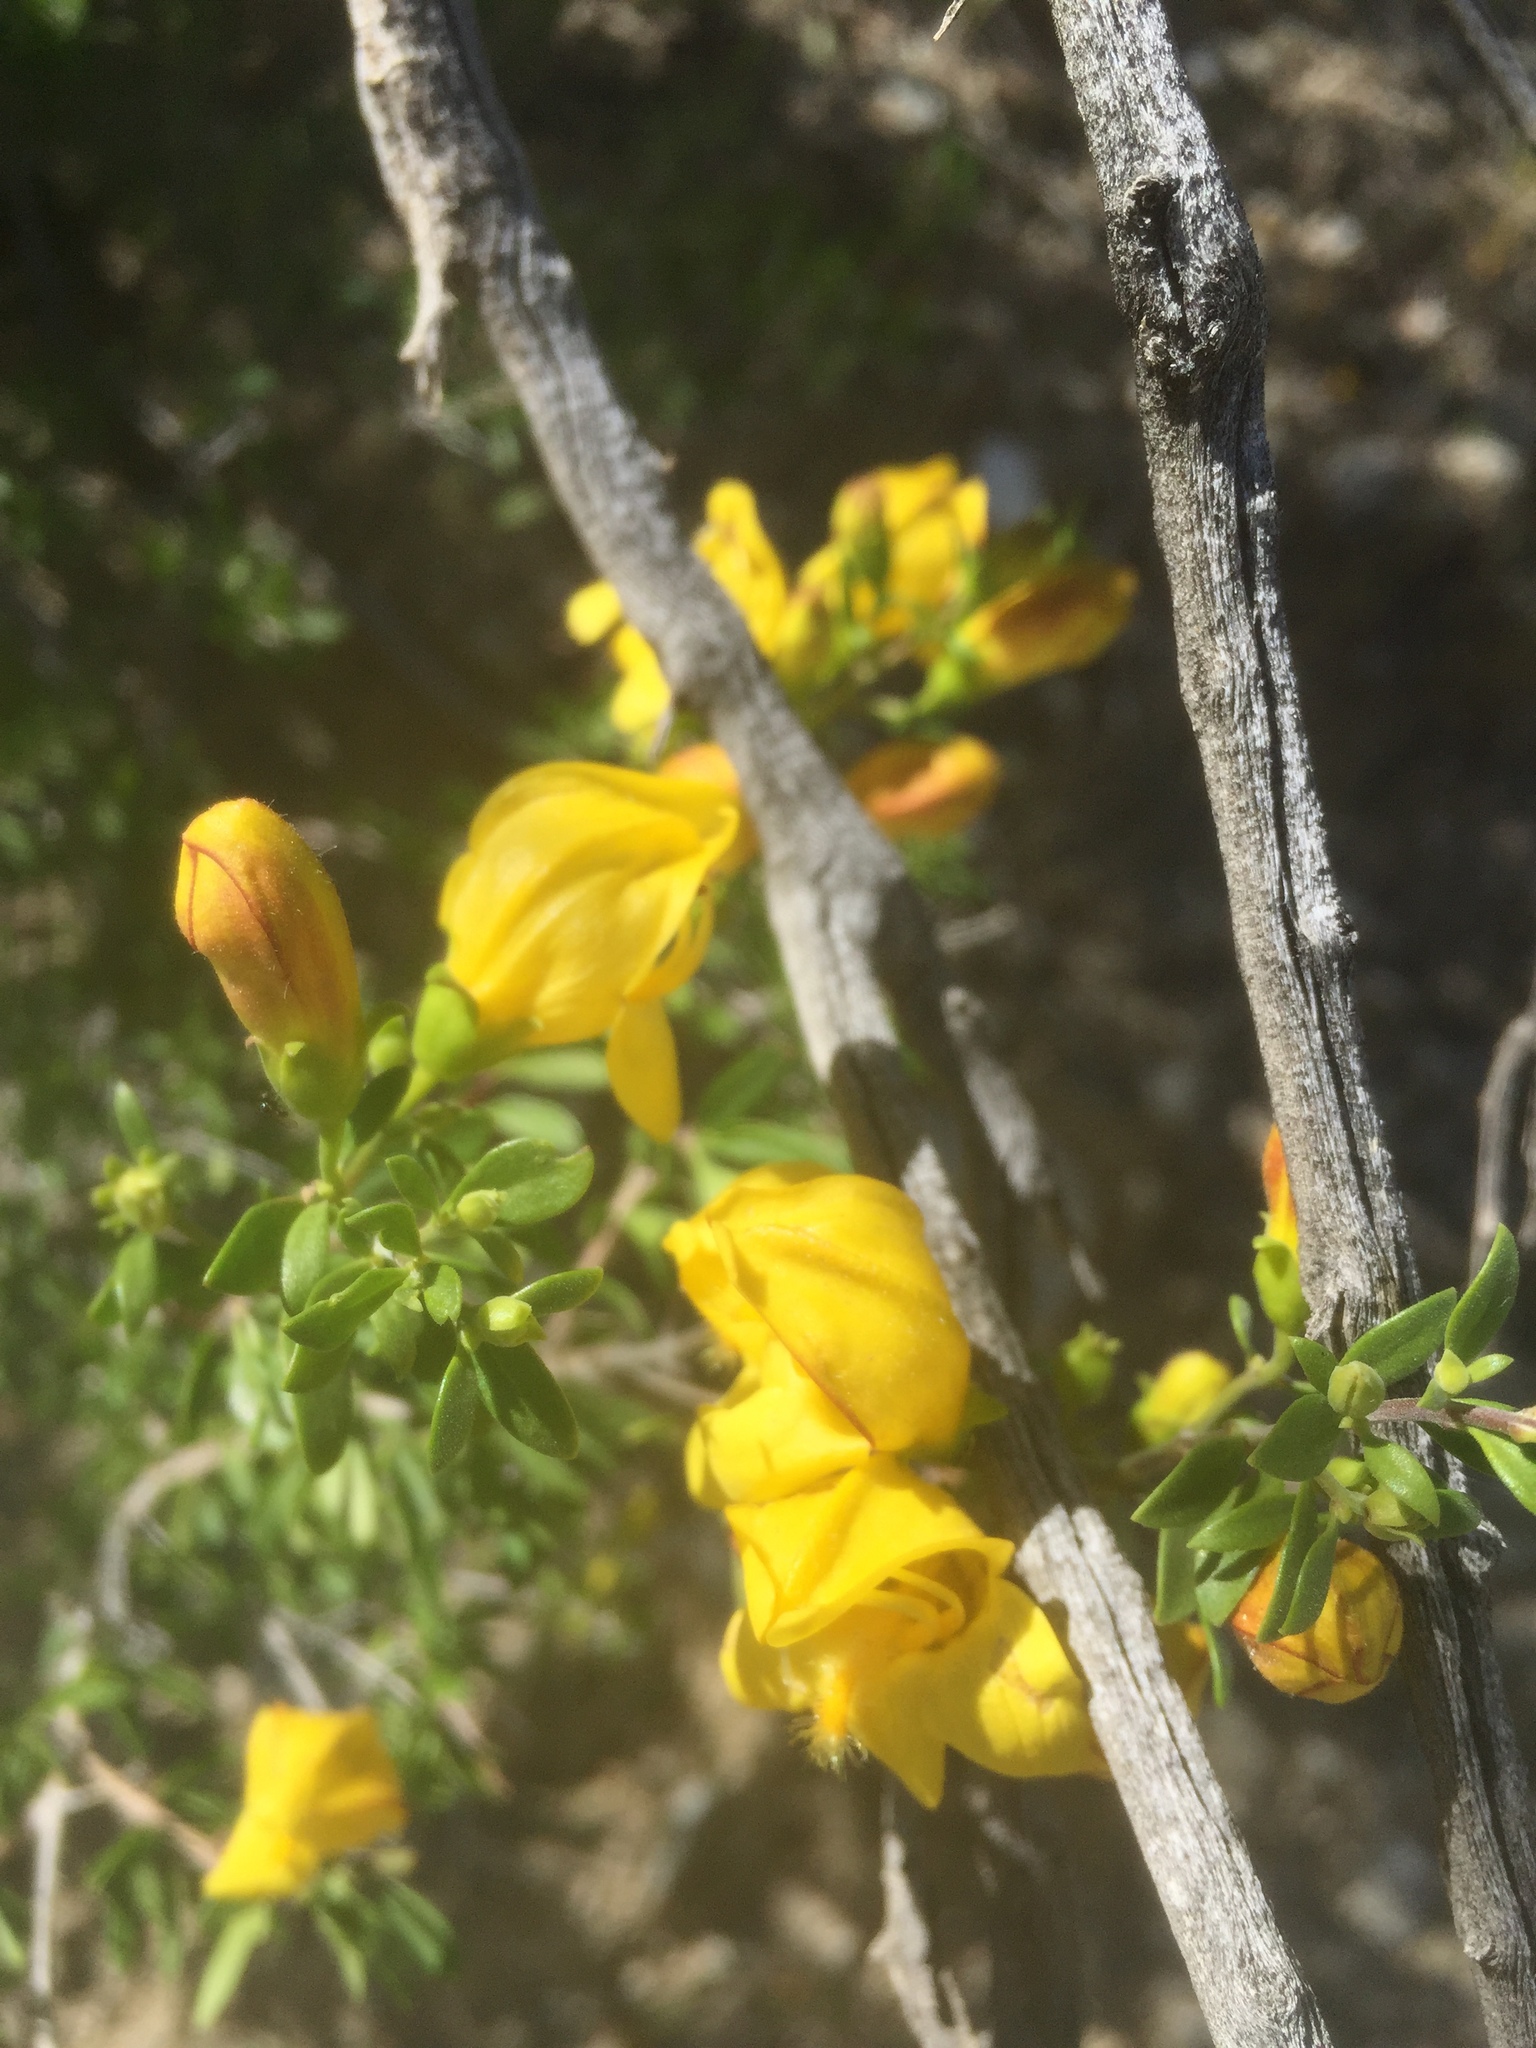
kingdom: Plantae
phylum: Tracheophyta
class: Magnoliopsida
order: Lamiales
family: Plantaginaceae
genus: Keckiella
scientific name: Keckiella antirrhinoides
